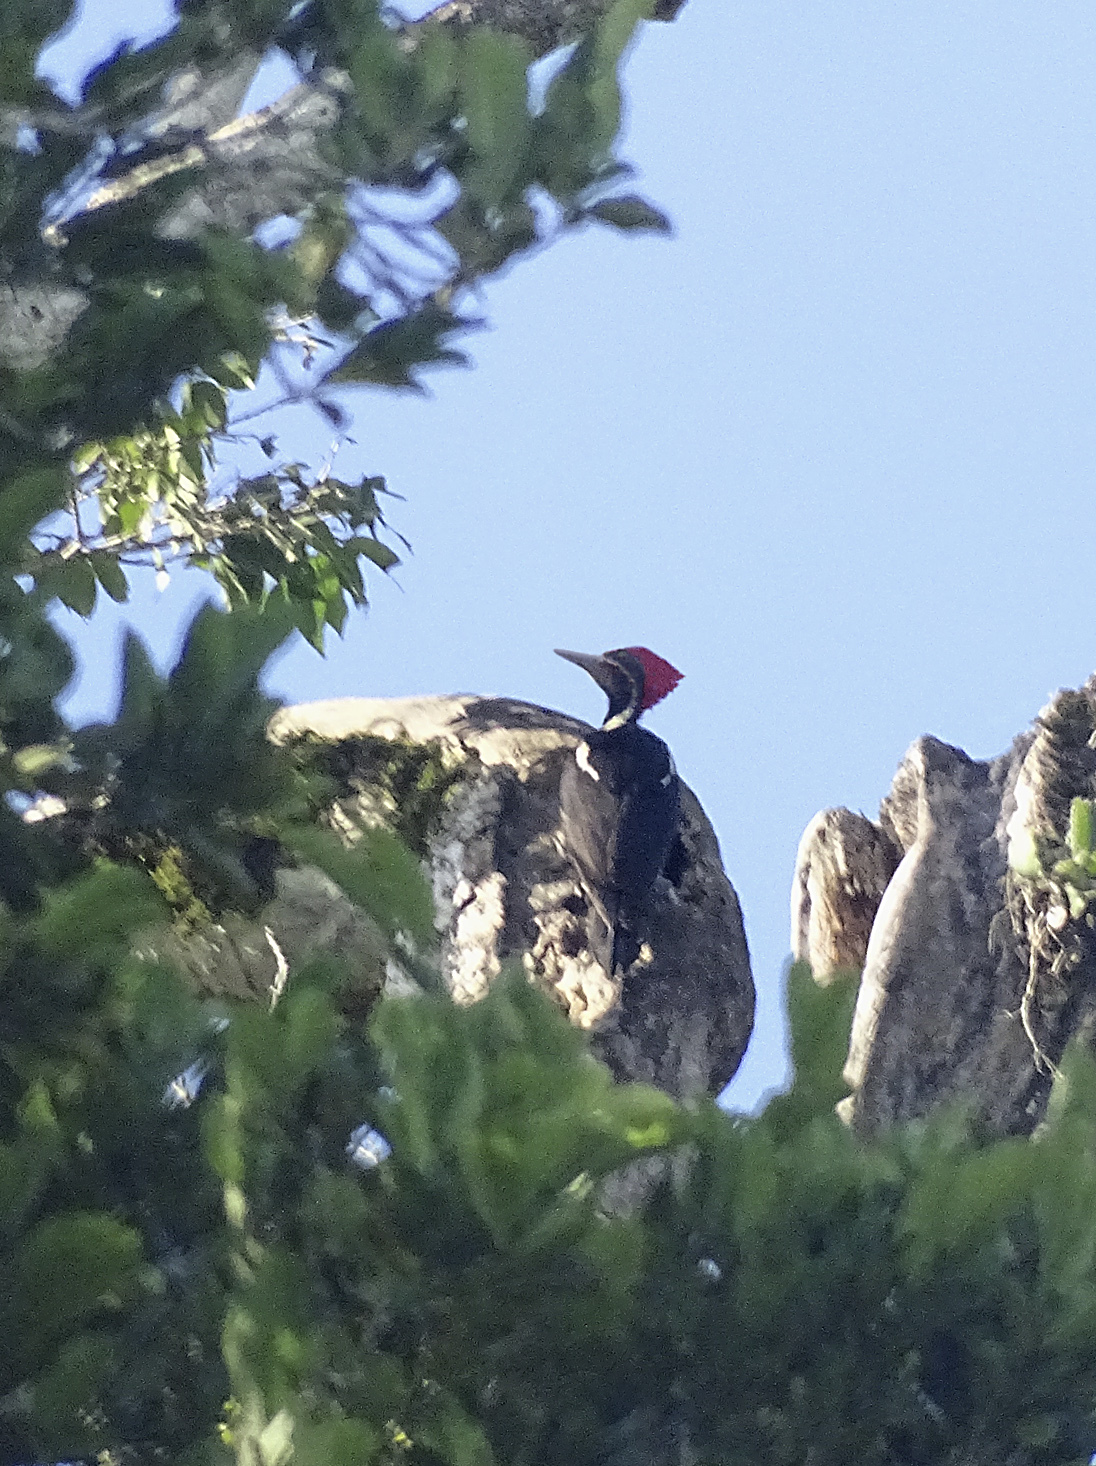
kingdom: Animalia
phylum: Chordata
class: Aves
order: Piciformes
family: Picidae
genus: Dryocopus
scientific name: Dryocopus lineatus
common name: Lineated woodpecker
